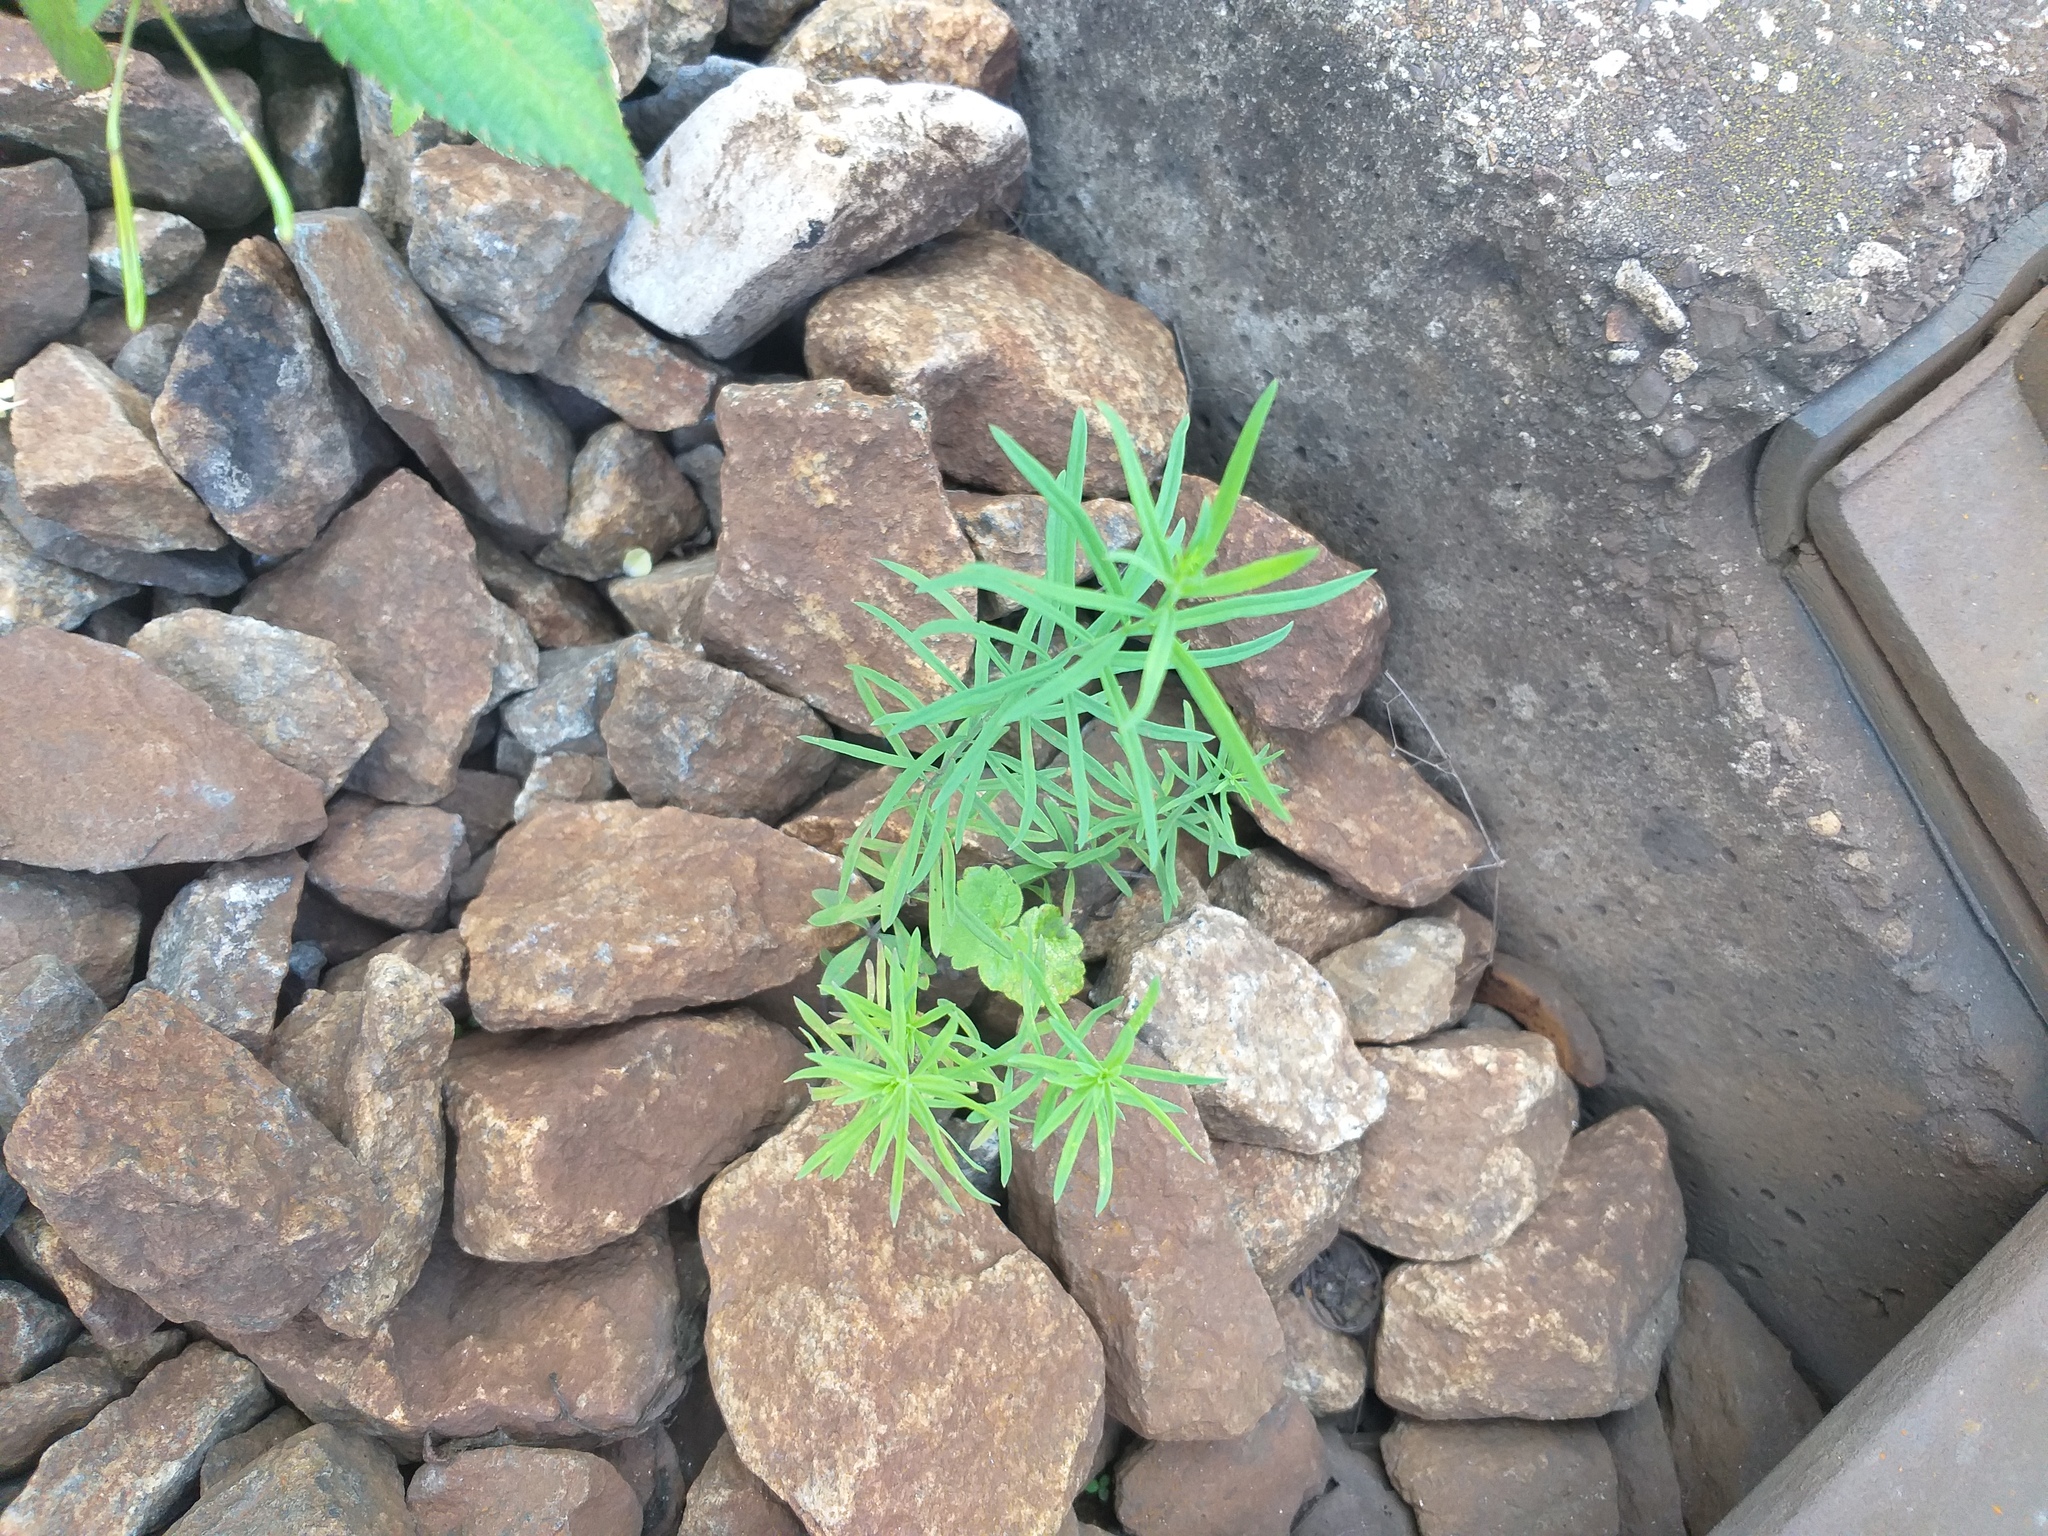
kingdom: Plantae
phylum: Tracheophyta
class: Magnoliopsida
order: Lamiales
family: Plantaginaceae
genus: Linaria
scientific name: Linaria vulgaris
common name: Butter and eggs
